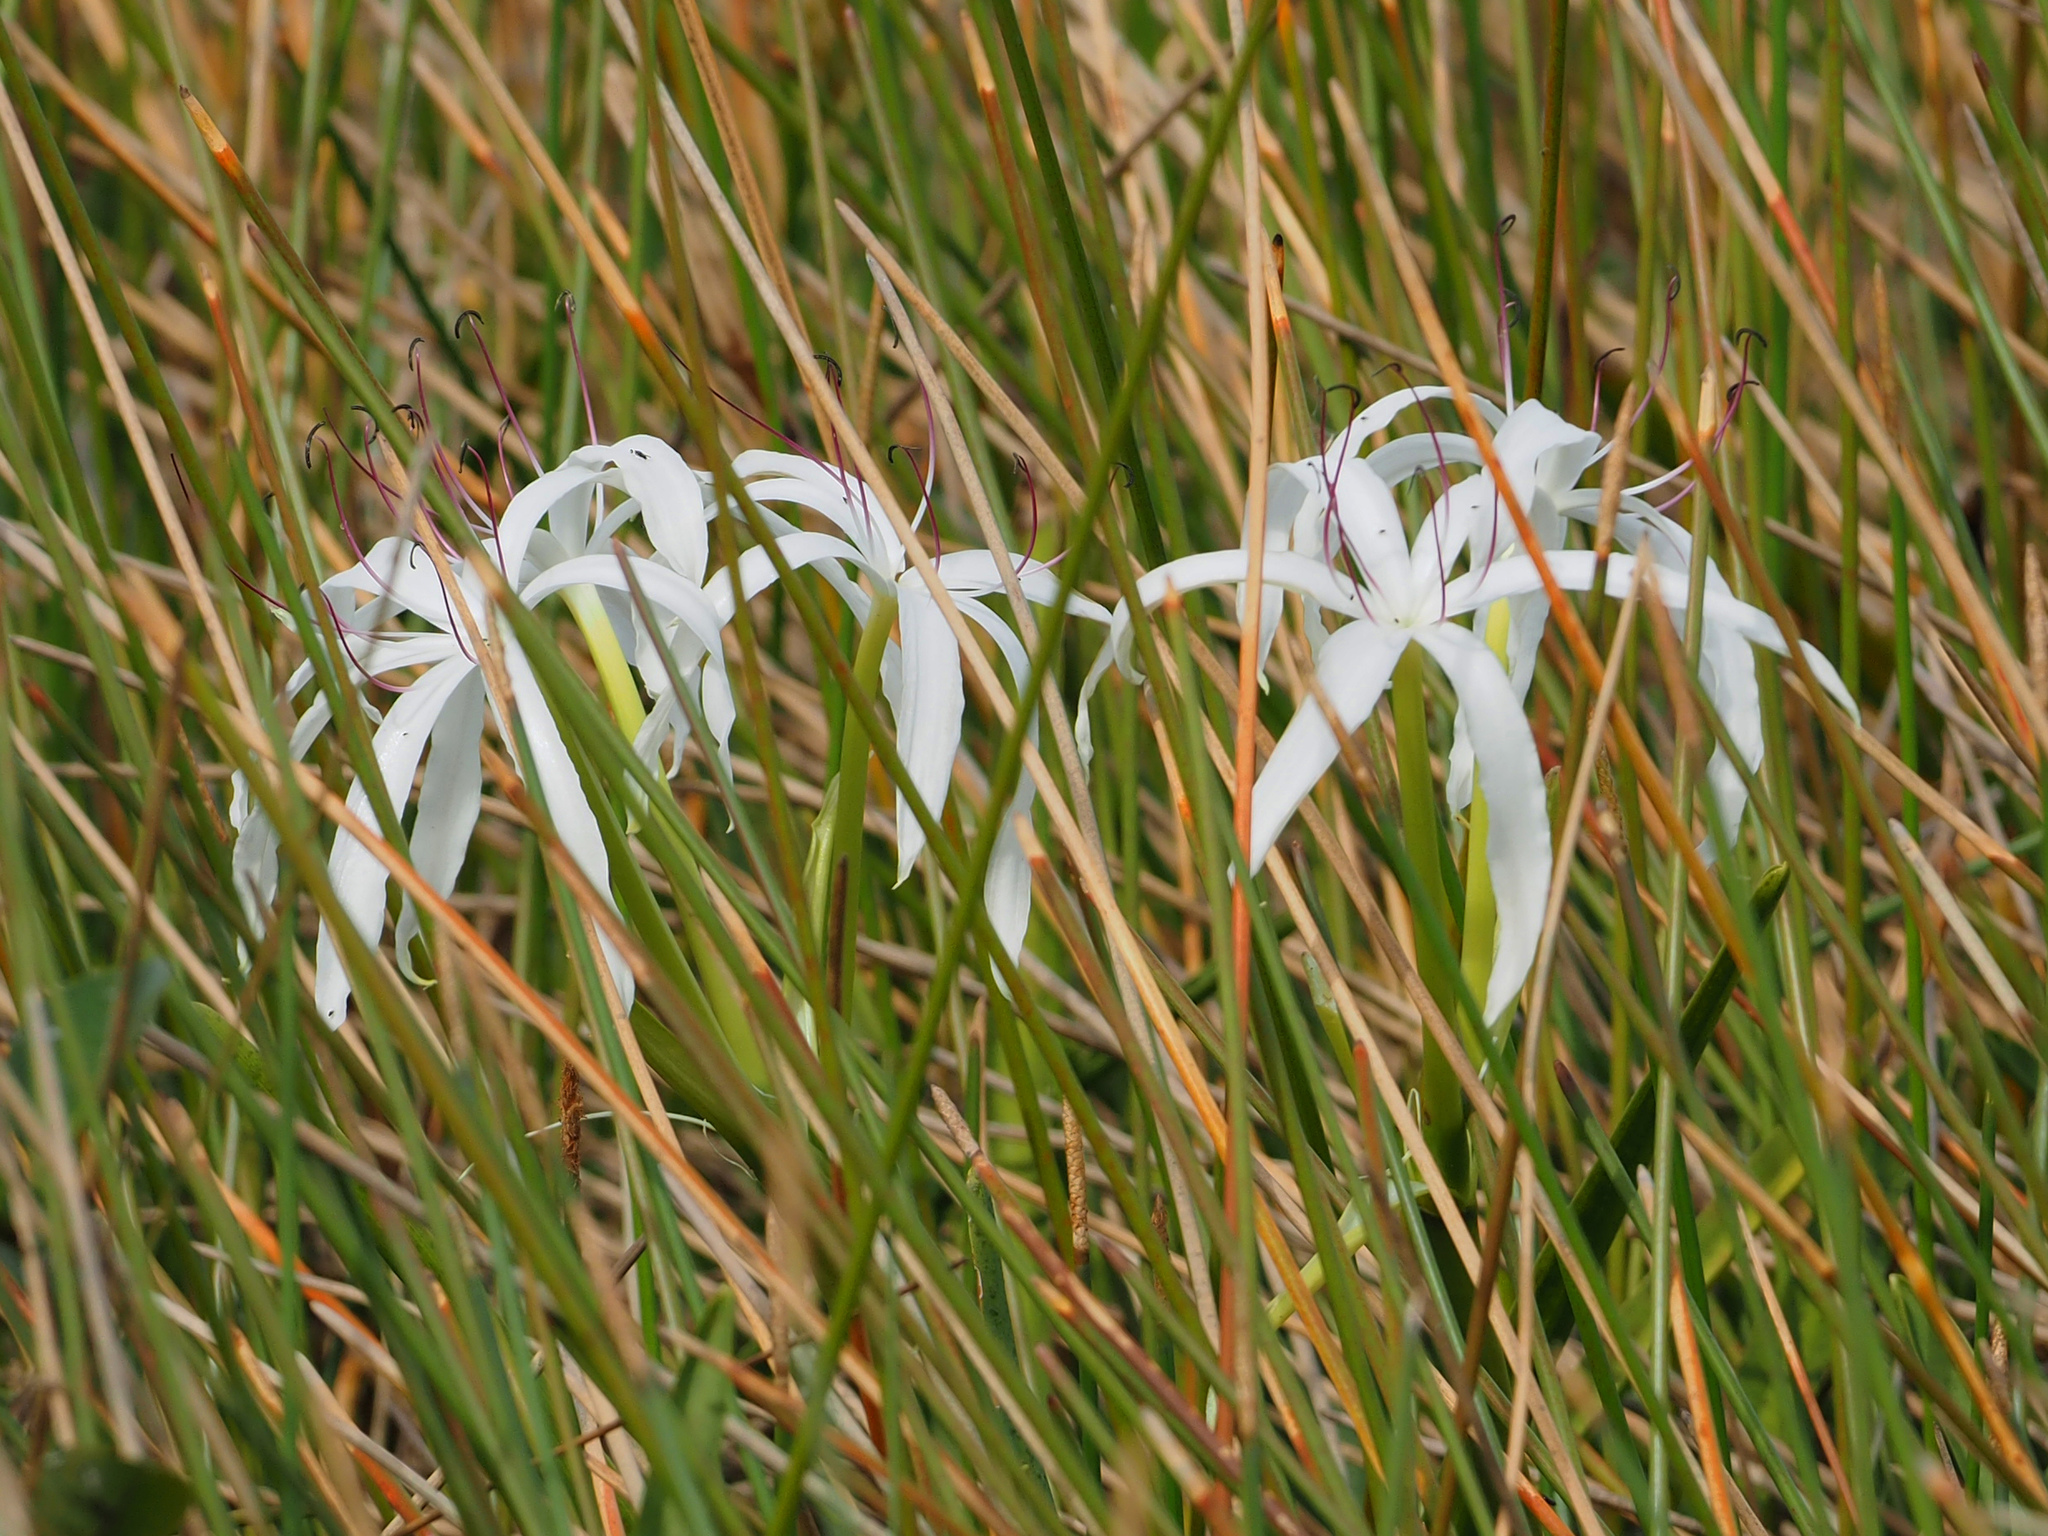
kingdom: Plantae
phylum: Tracheophyta
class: Liliopsida
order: Asparagales
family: Amaryllidaceae
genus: Crinum
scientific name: Crinum americanum
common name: Florida swamp-lily
